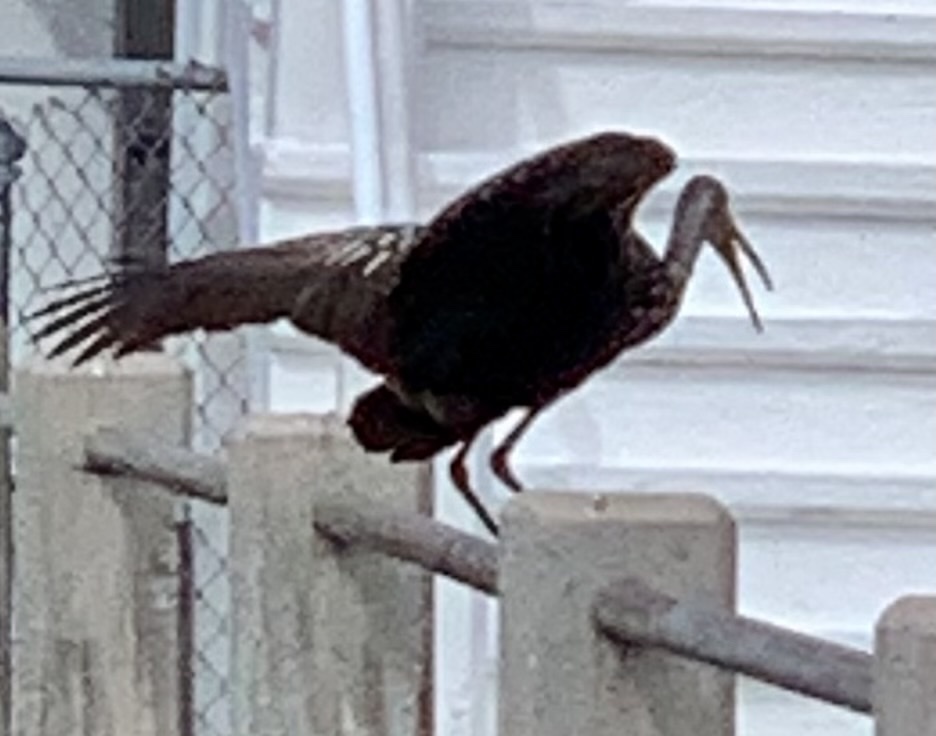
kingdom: Animalia
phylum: Chordata
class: Aves
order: Gruiformes
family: Aramidae
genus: Aramus
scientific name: Aramus guarauna
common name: Limpkin
